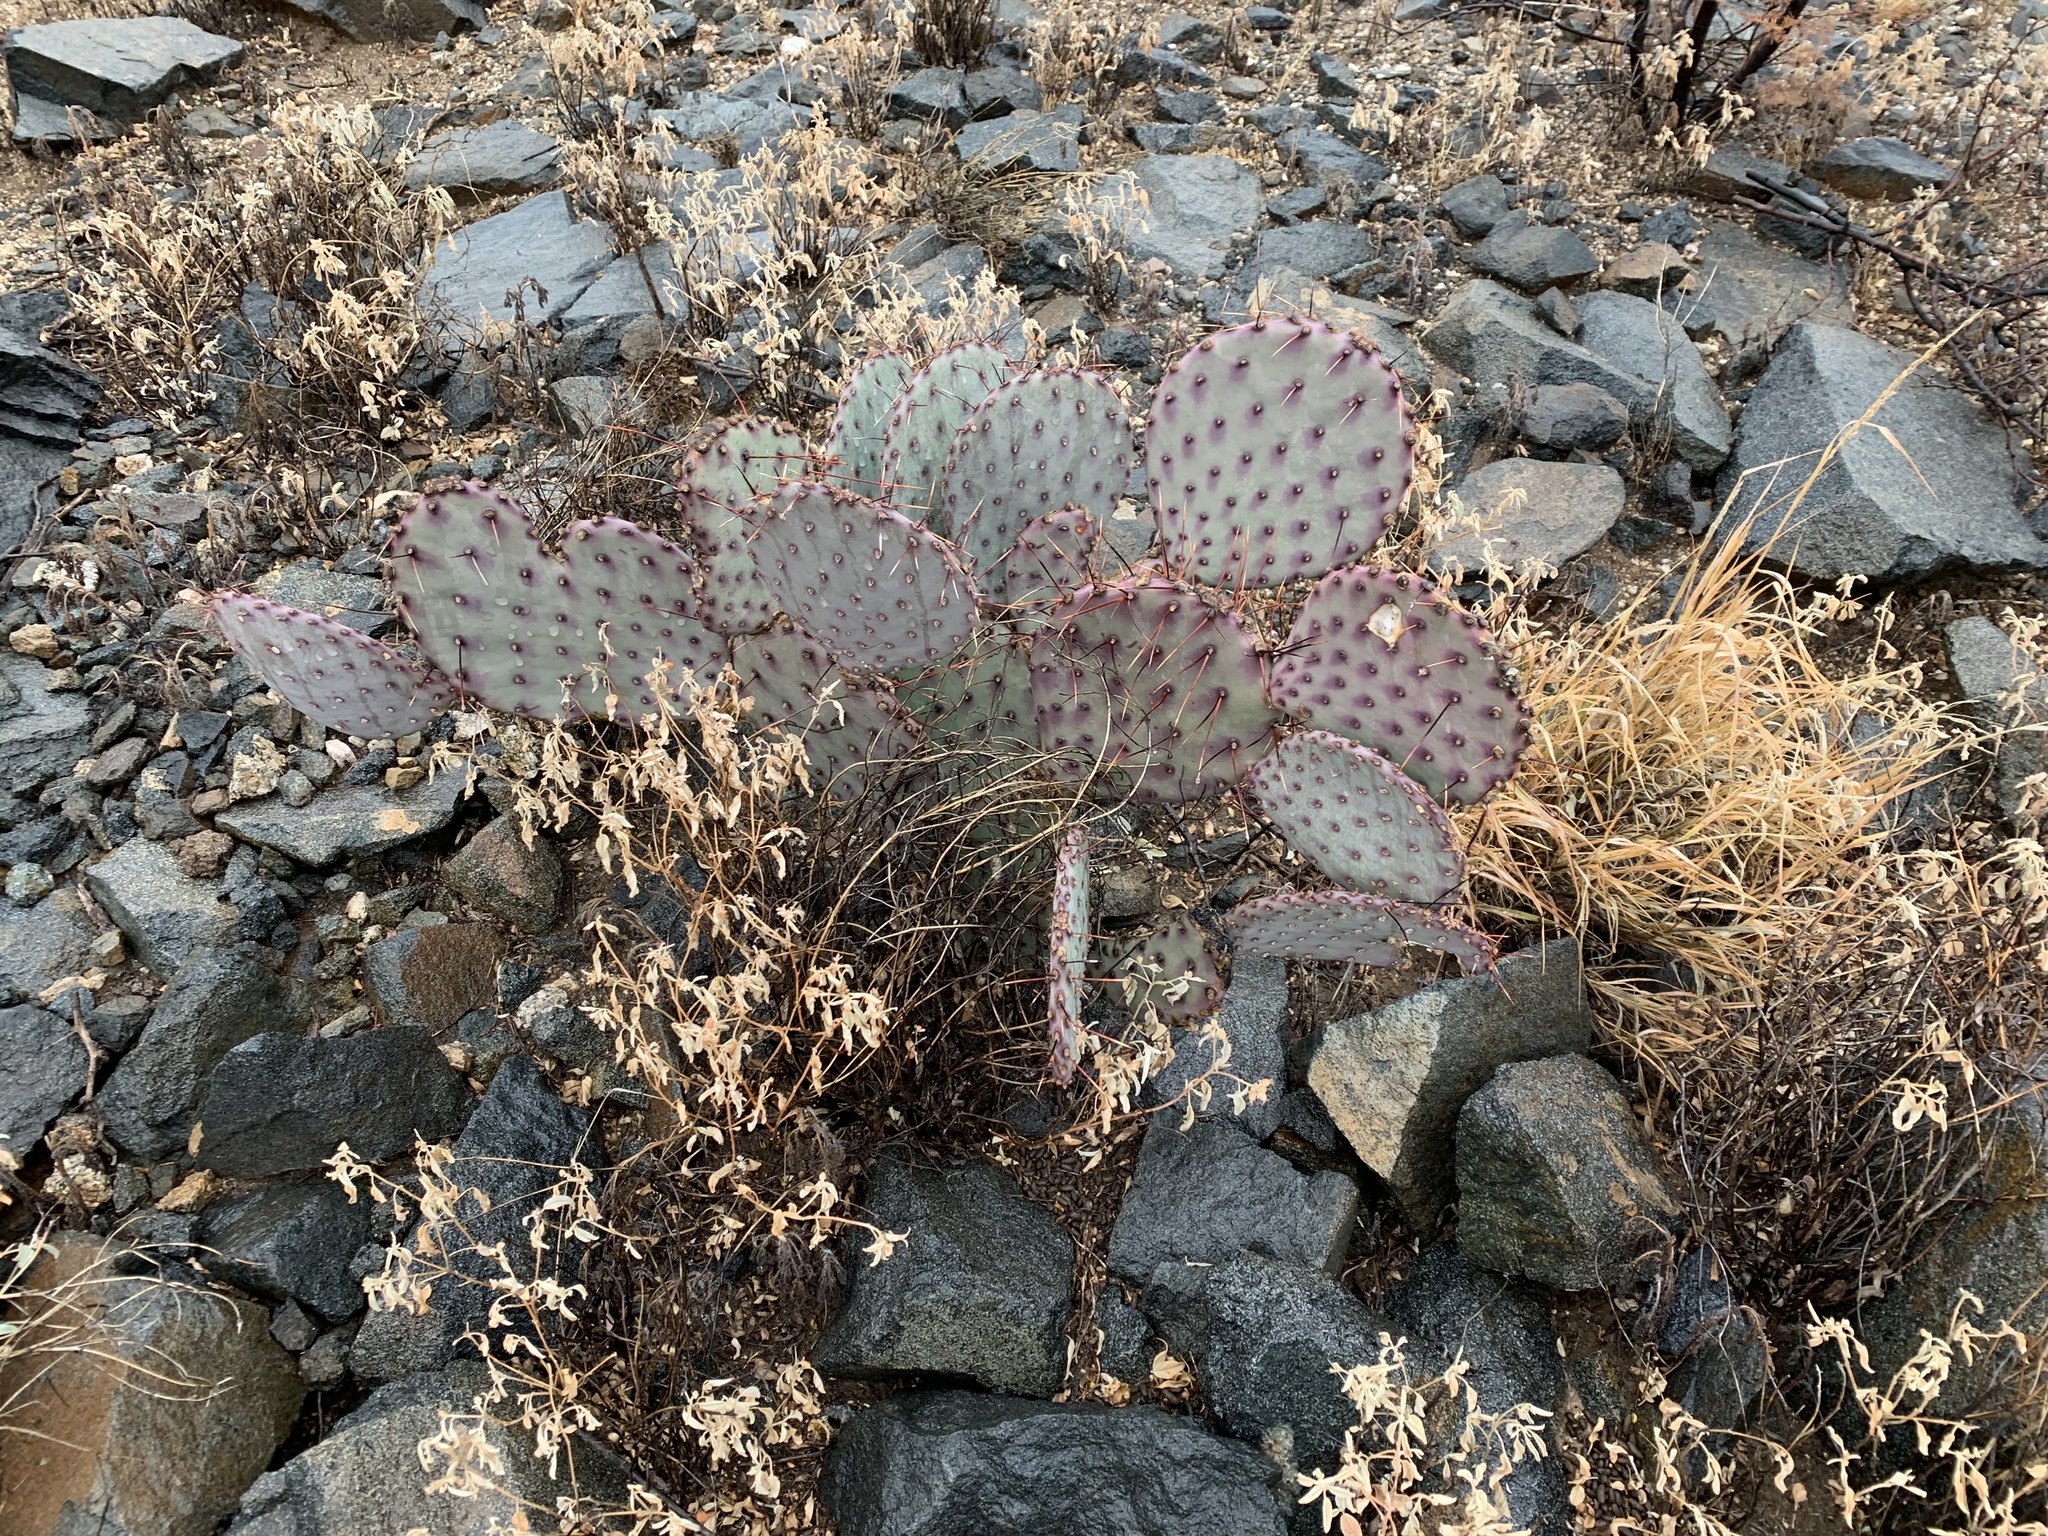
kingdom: Plantae
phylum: Tracheophyta
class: Magnoliopsida
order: Caryophyllales
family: Cactaceae
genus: Opuntia
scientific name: Opuntia macrocentra
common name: Purple prickly-pear
